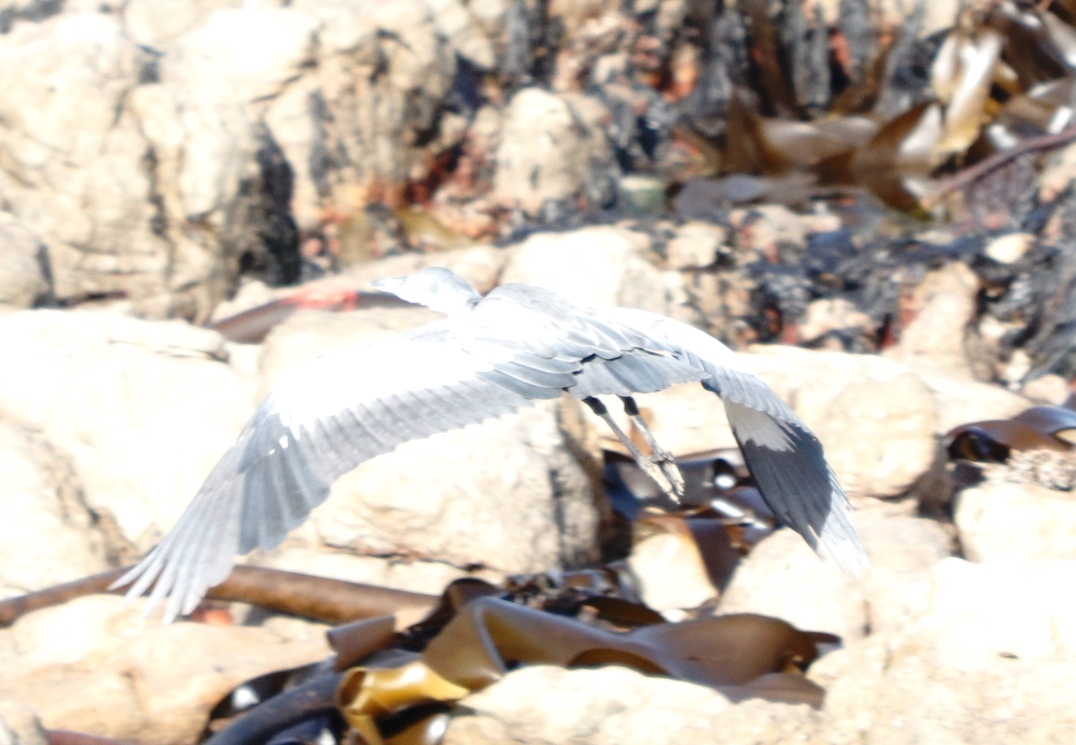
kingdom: Animalia
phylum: Chordata
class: Aves
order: Pelecaniformes
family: Ardeidae
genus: Ardea
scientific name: Ardea melanocephala
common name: Black-headed heron
